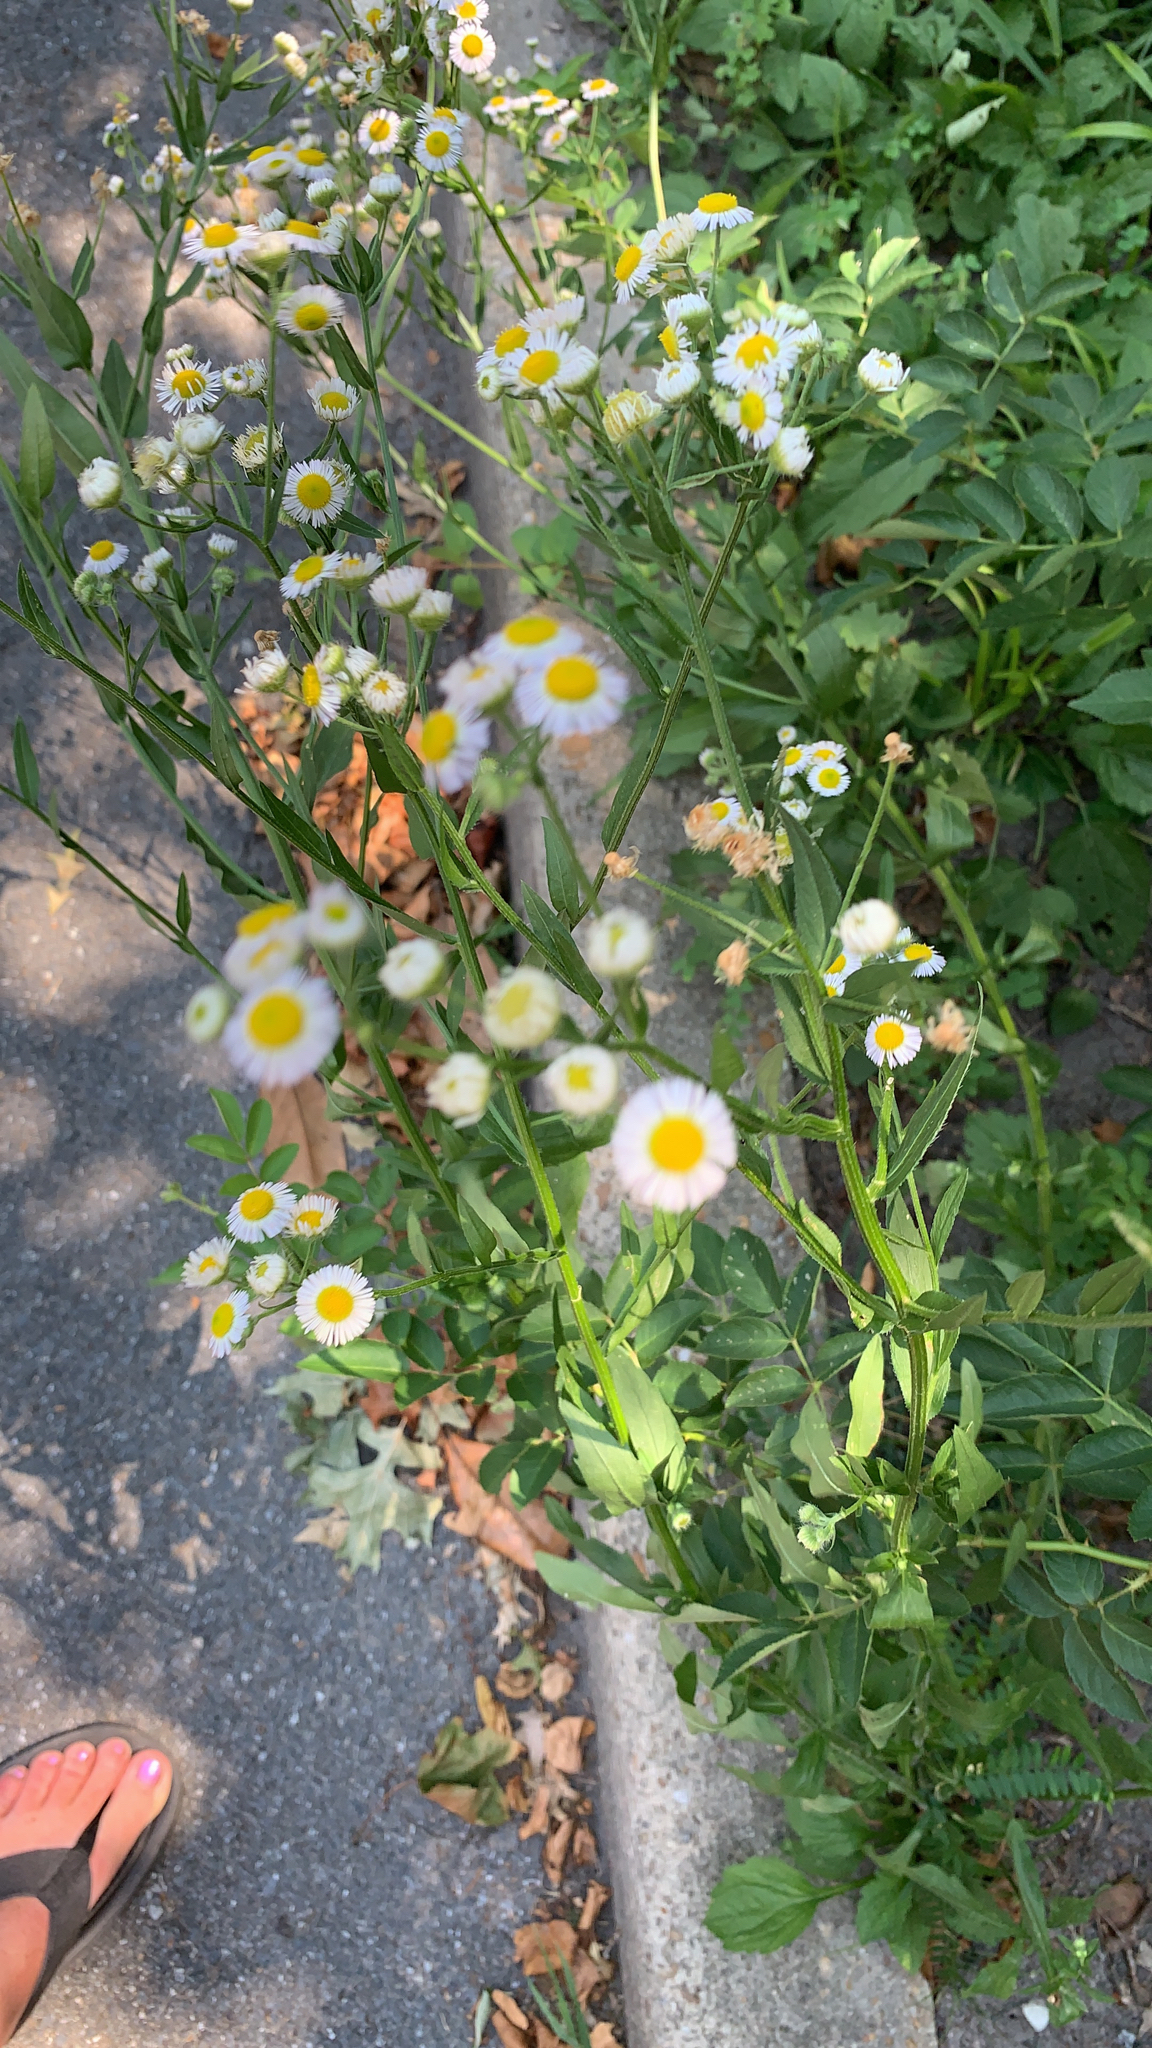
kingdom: Plantae
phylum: Tracheophyta
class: Magnoliopsida
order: Asterales
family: Asteraceae
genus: Erigeron
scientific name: Erigeron
